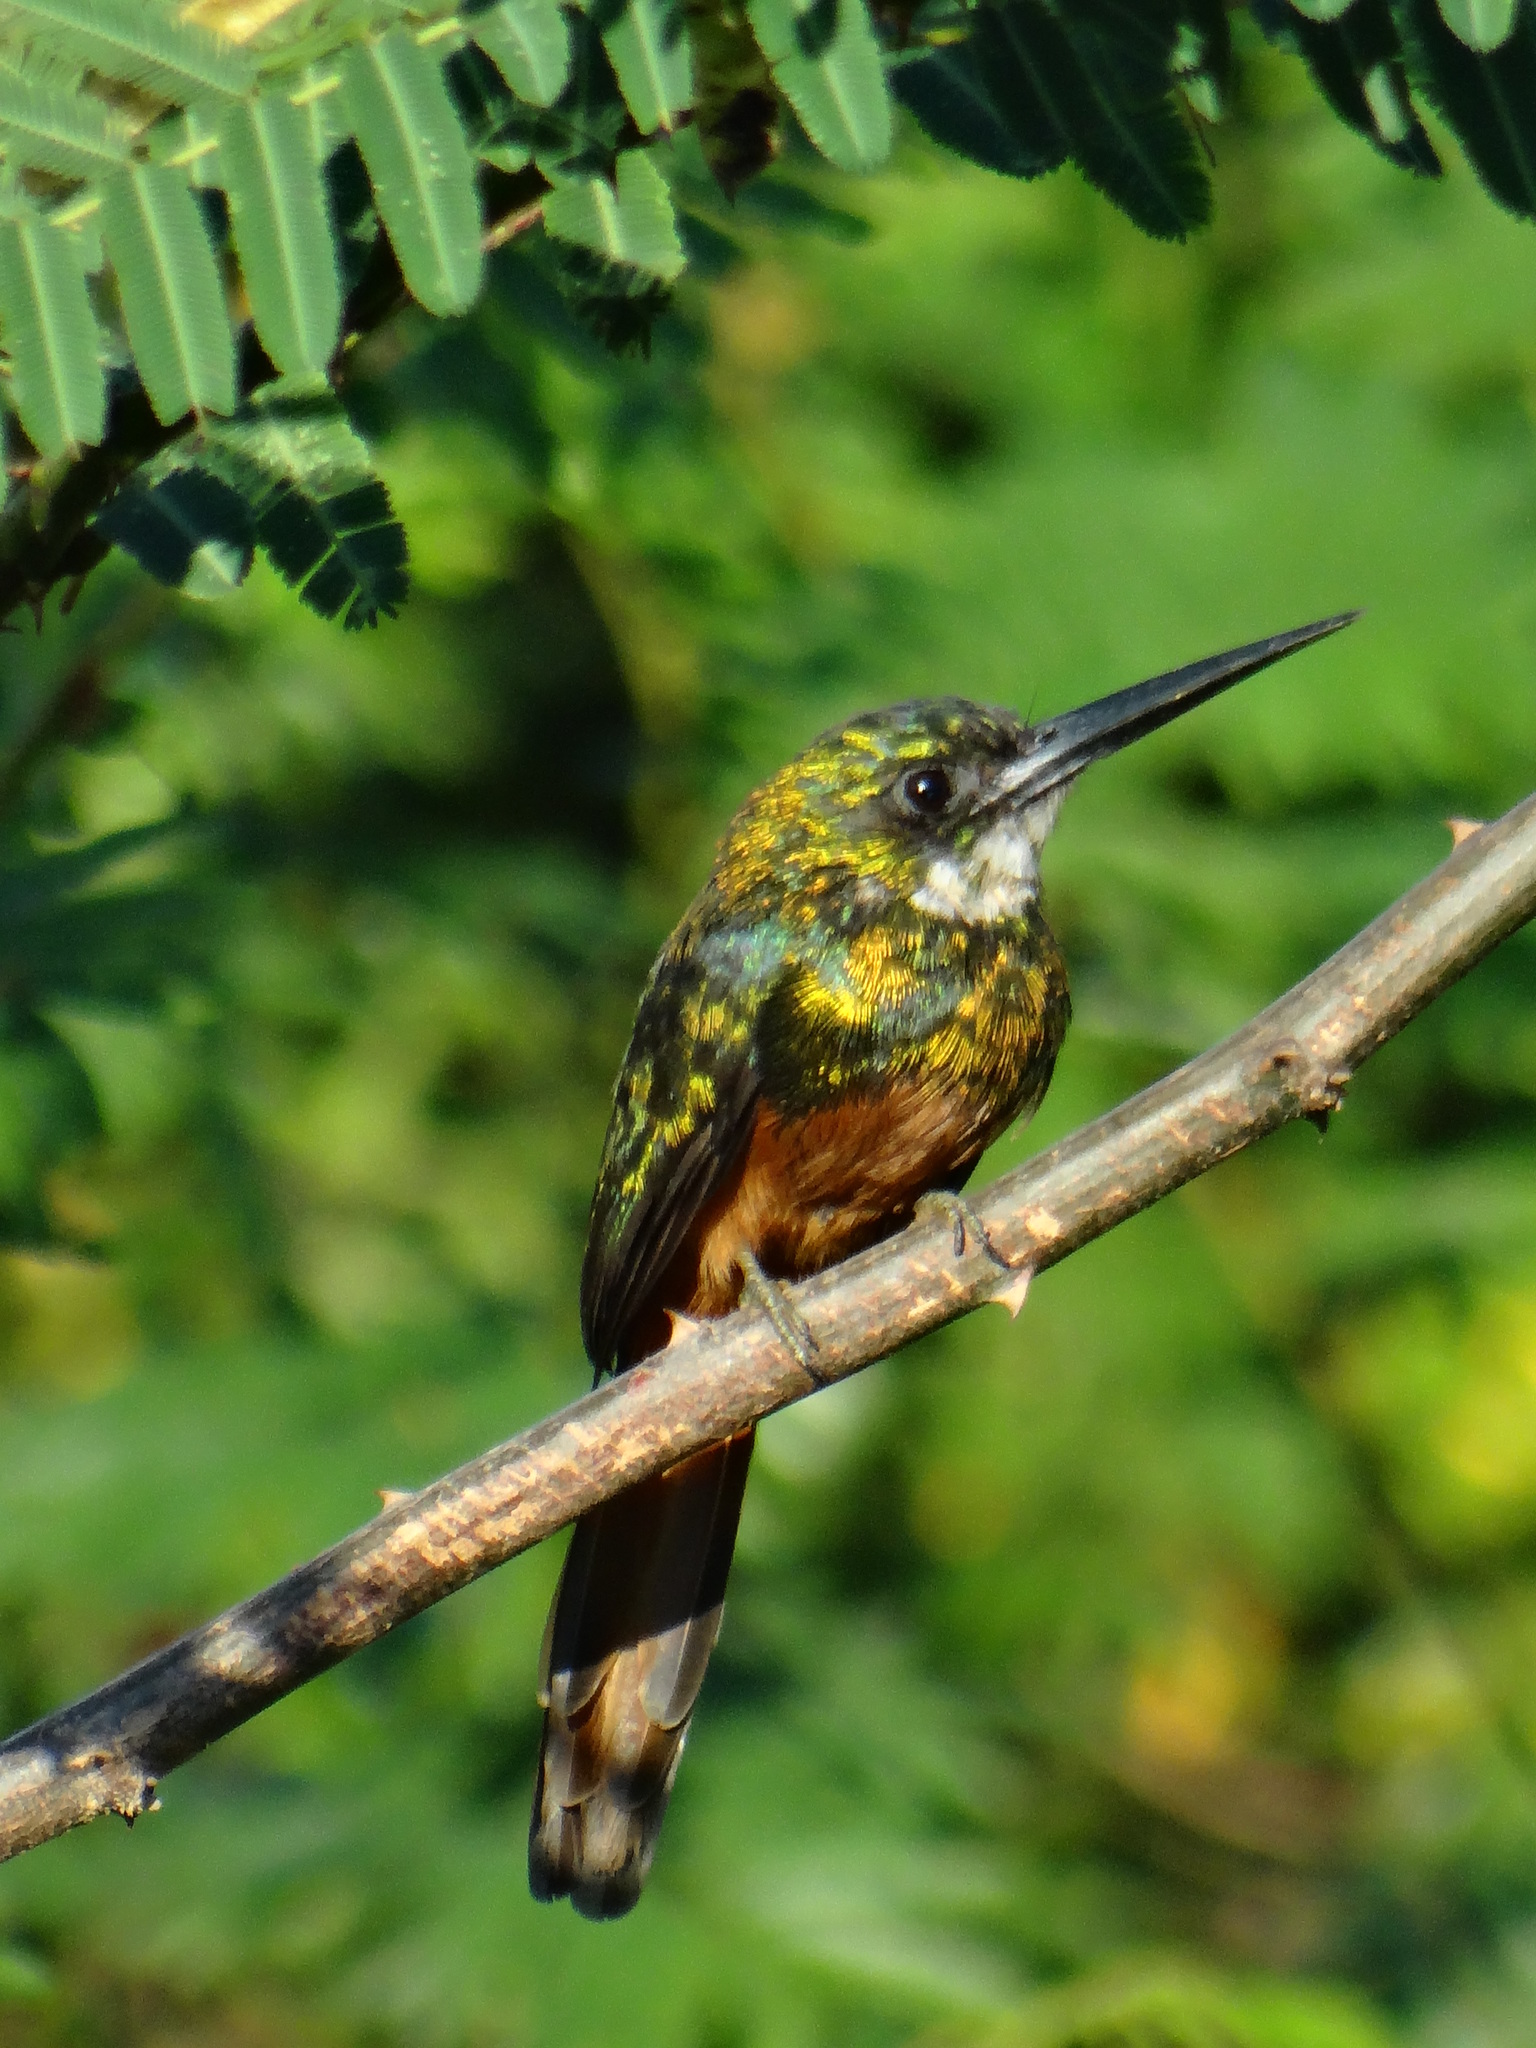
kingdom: Animalia
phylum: Chordata
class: Aves
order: Piciformes
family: Galbulidae
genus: Galbula
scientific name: Galbula ruficauda
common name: Rufous-tailed jacamar
